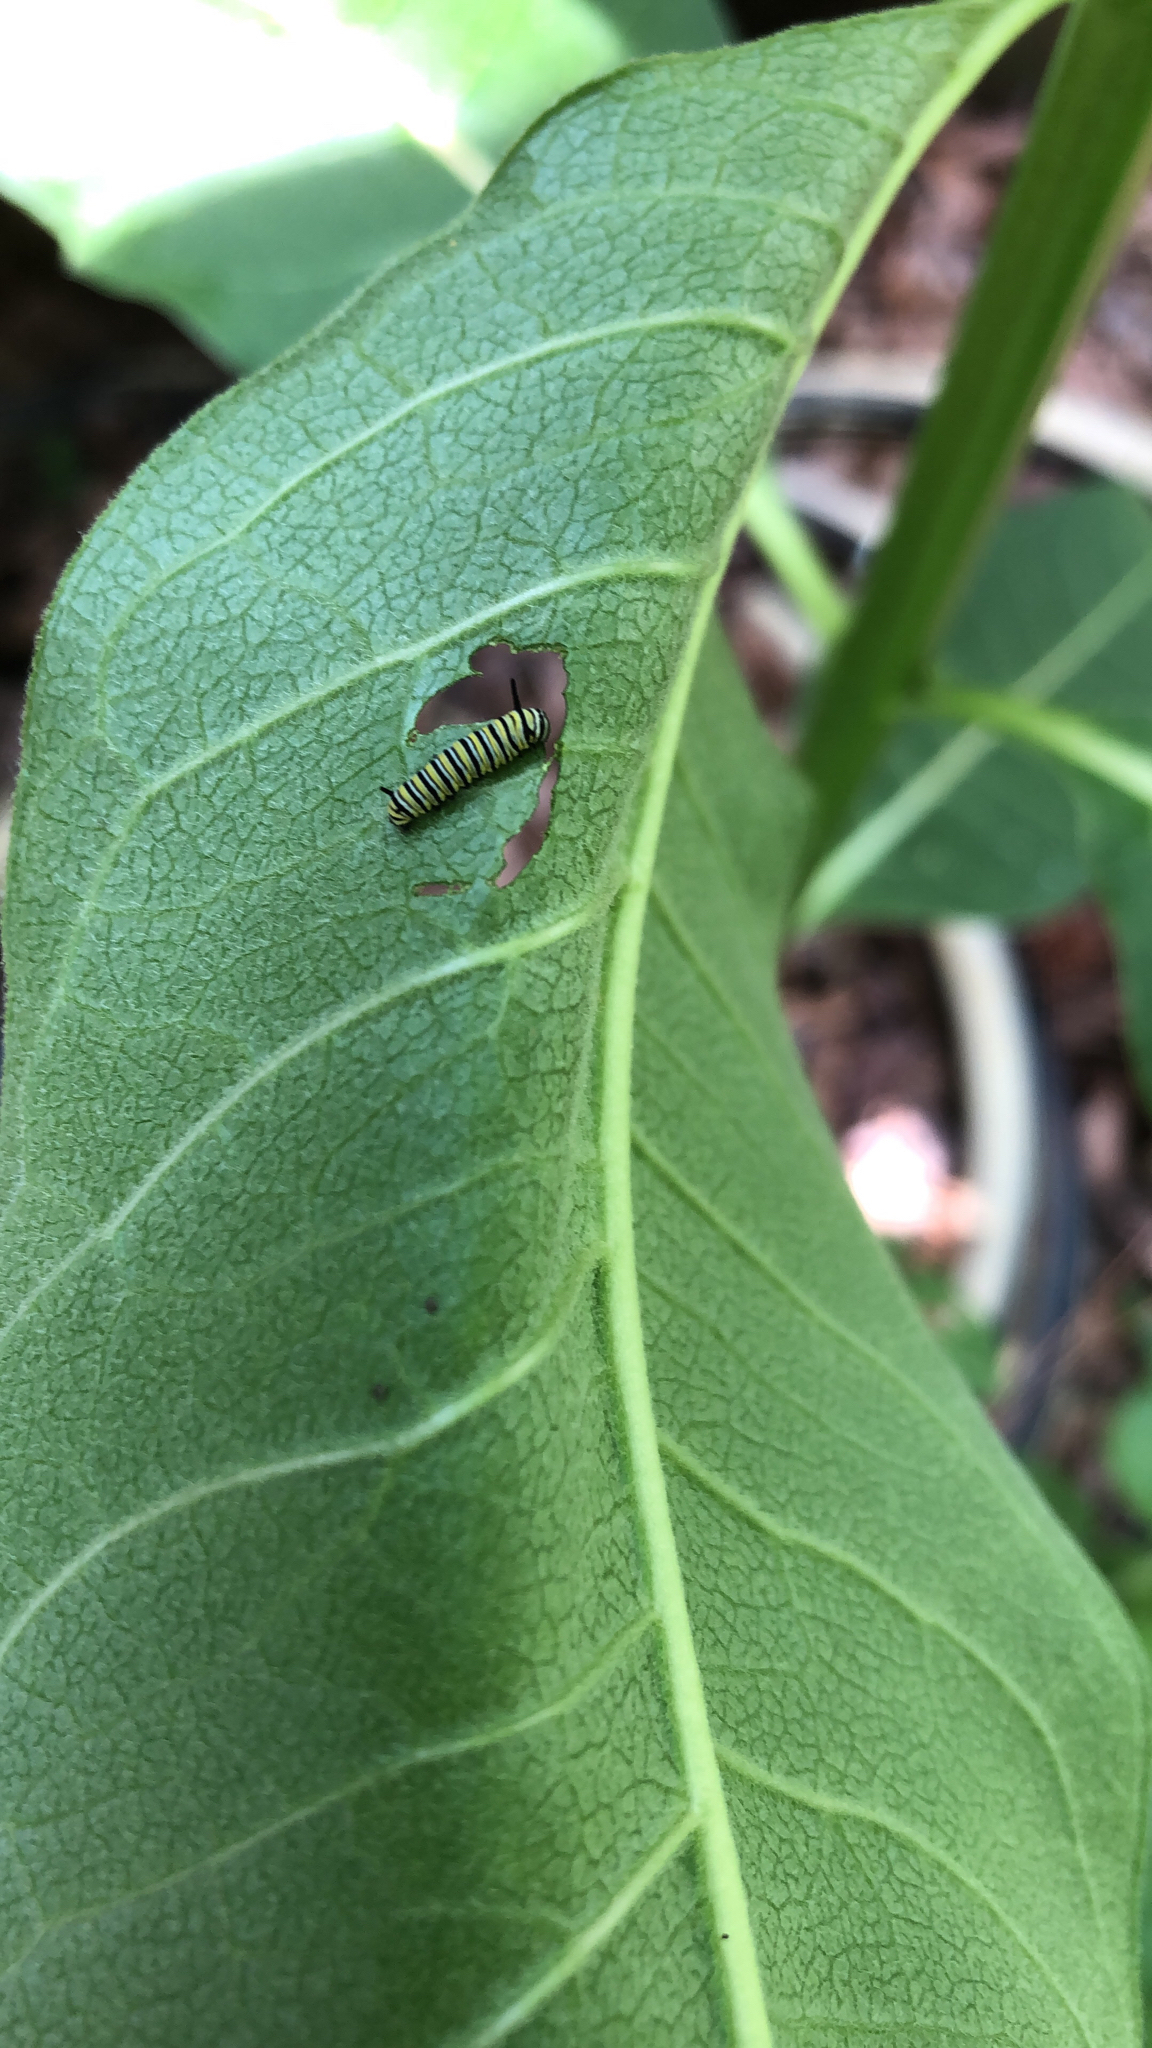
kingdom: Animalia
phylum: Arthropoda
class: Insecta
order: Lepidoptera
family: Nymphalidae
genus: Danaus
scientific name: Danaus plexippus
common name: Monarch
